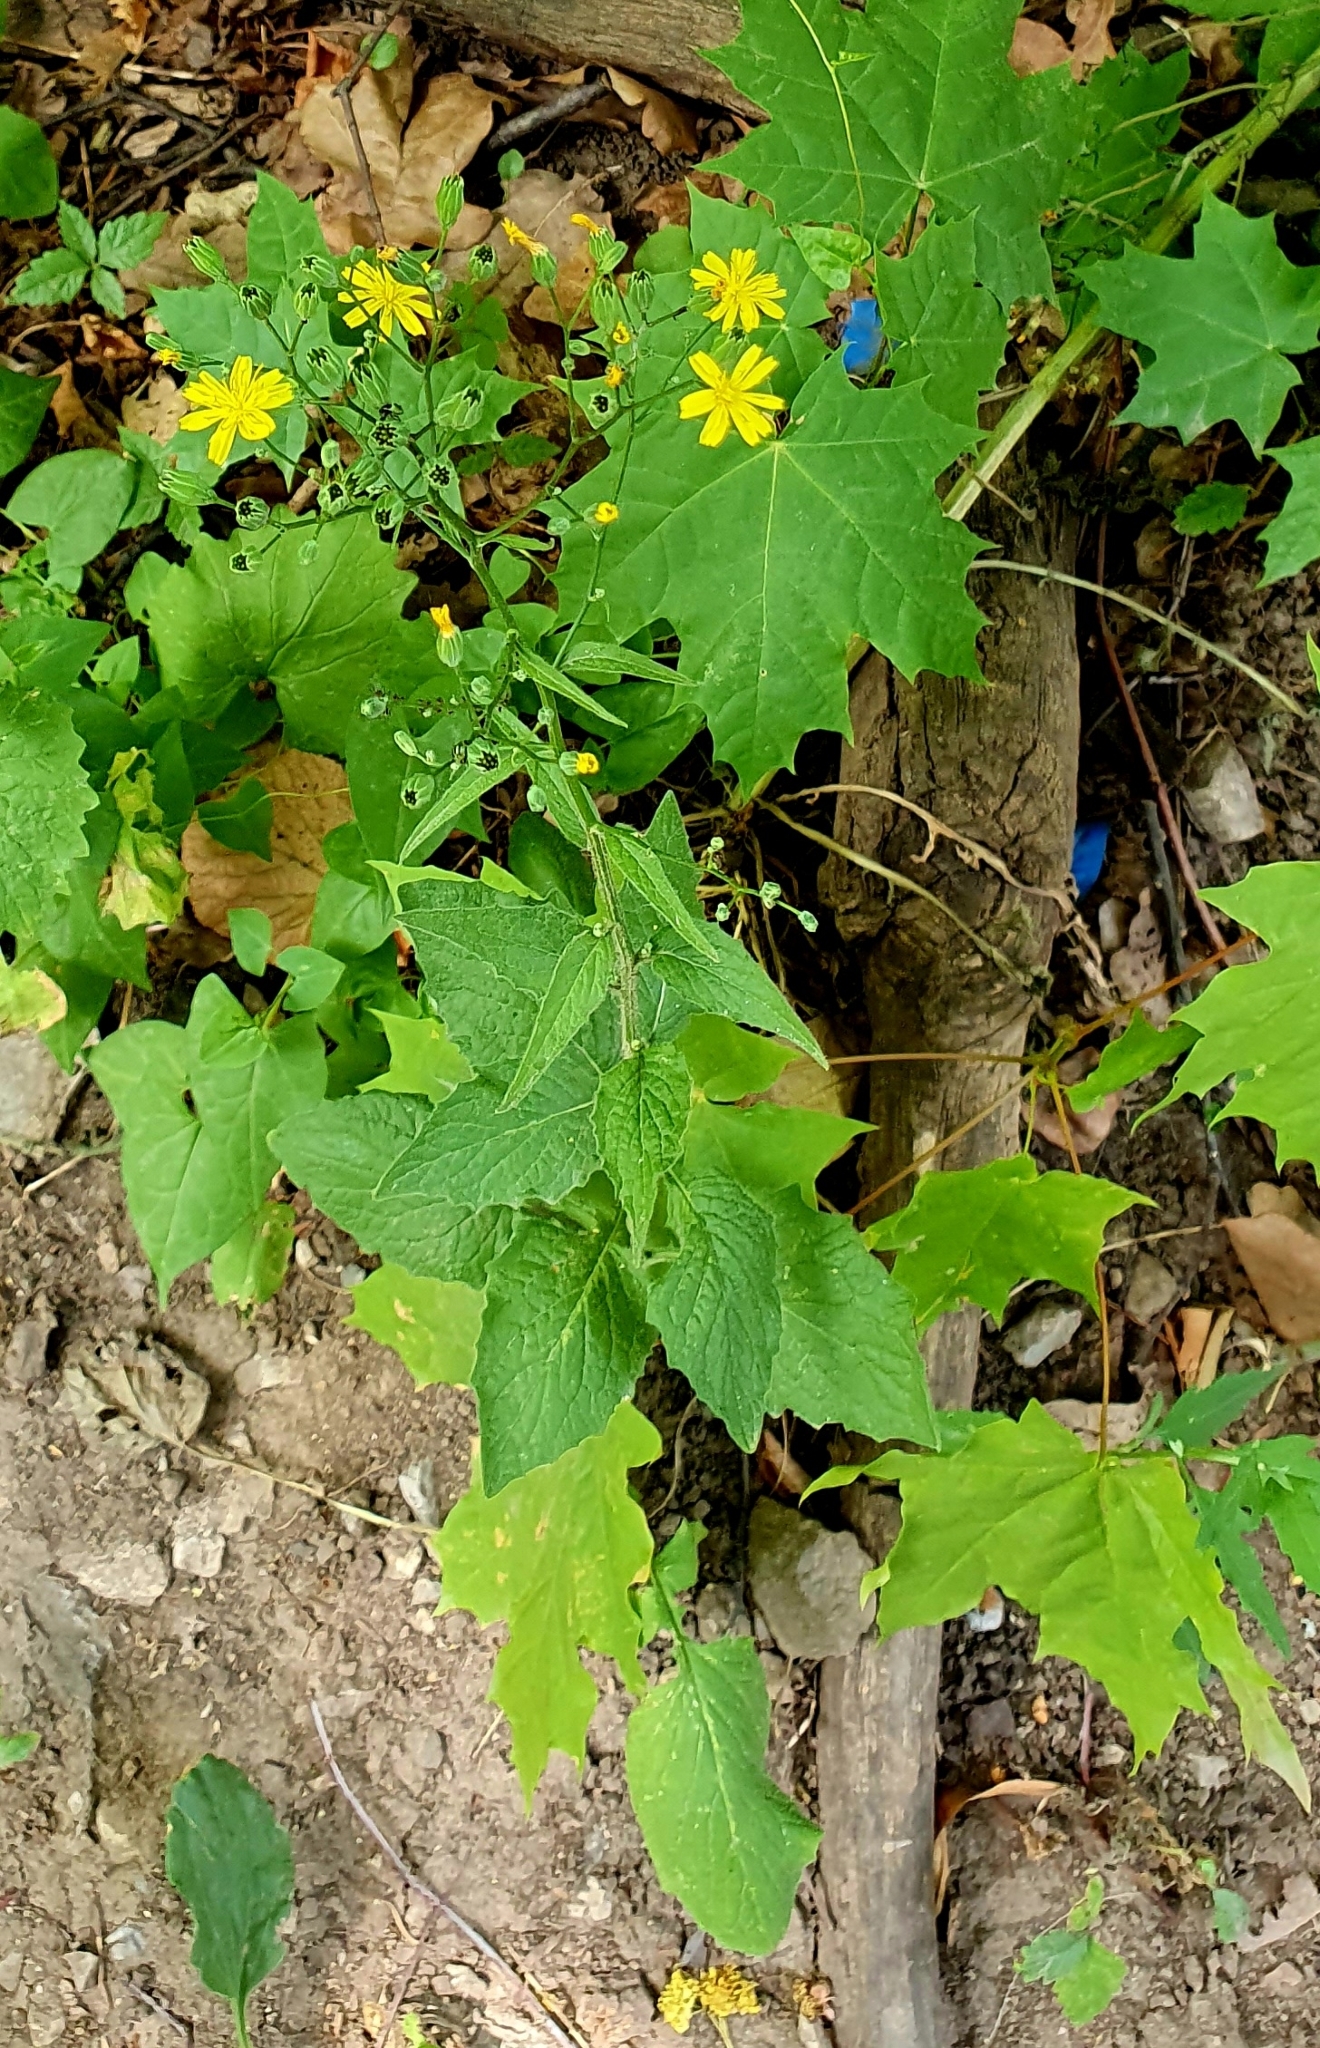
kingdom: Plantae
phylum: Tracheophyta
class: Magnoliopsida
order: Asterales
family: Asteraceae
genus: Lapsana
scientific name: Lapsana communis
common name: Nipplewort
